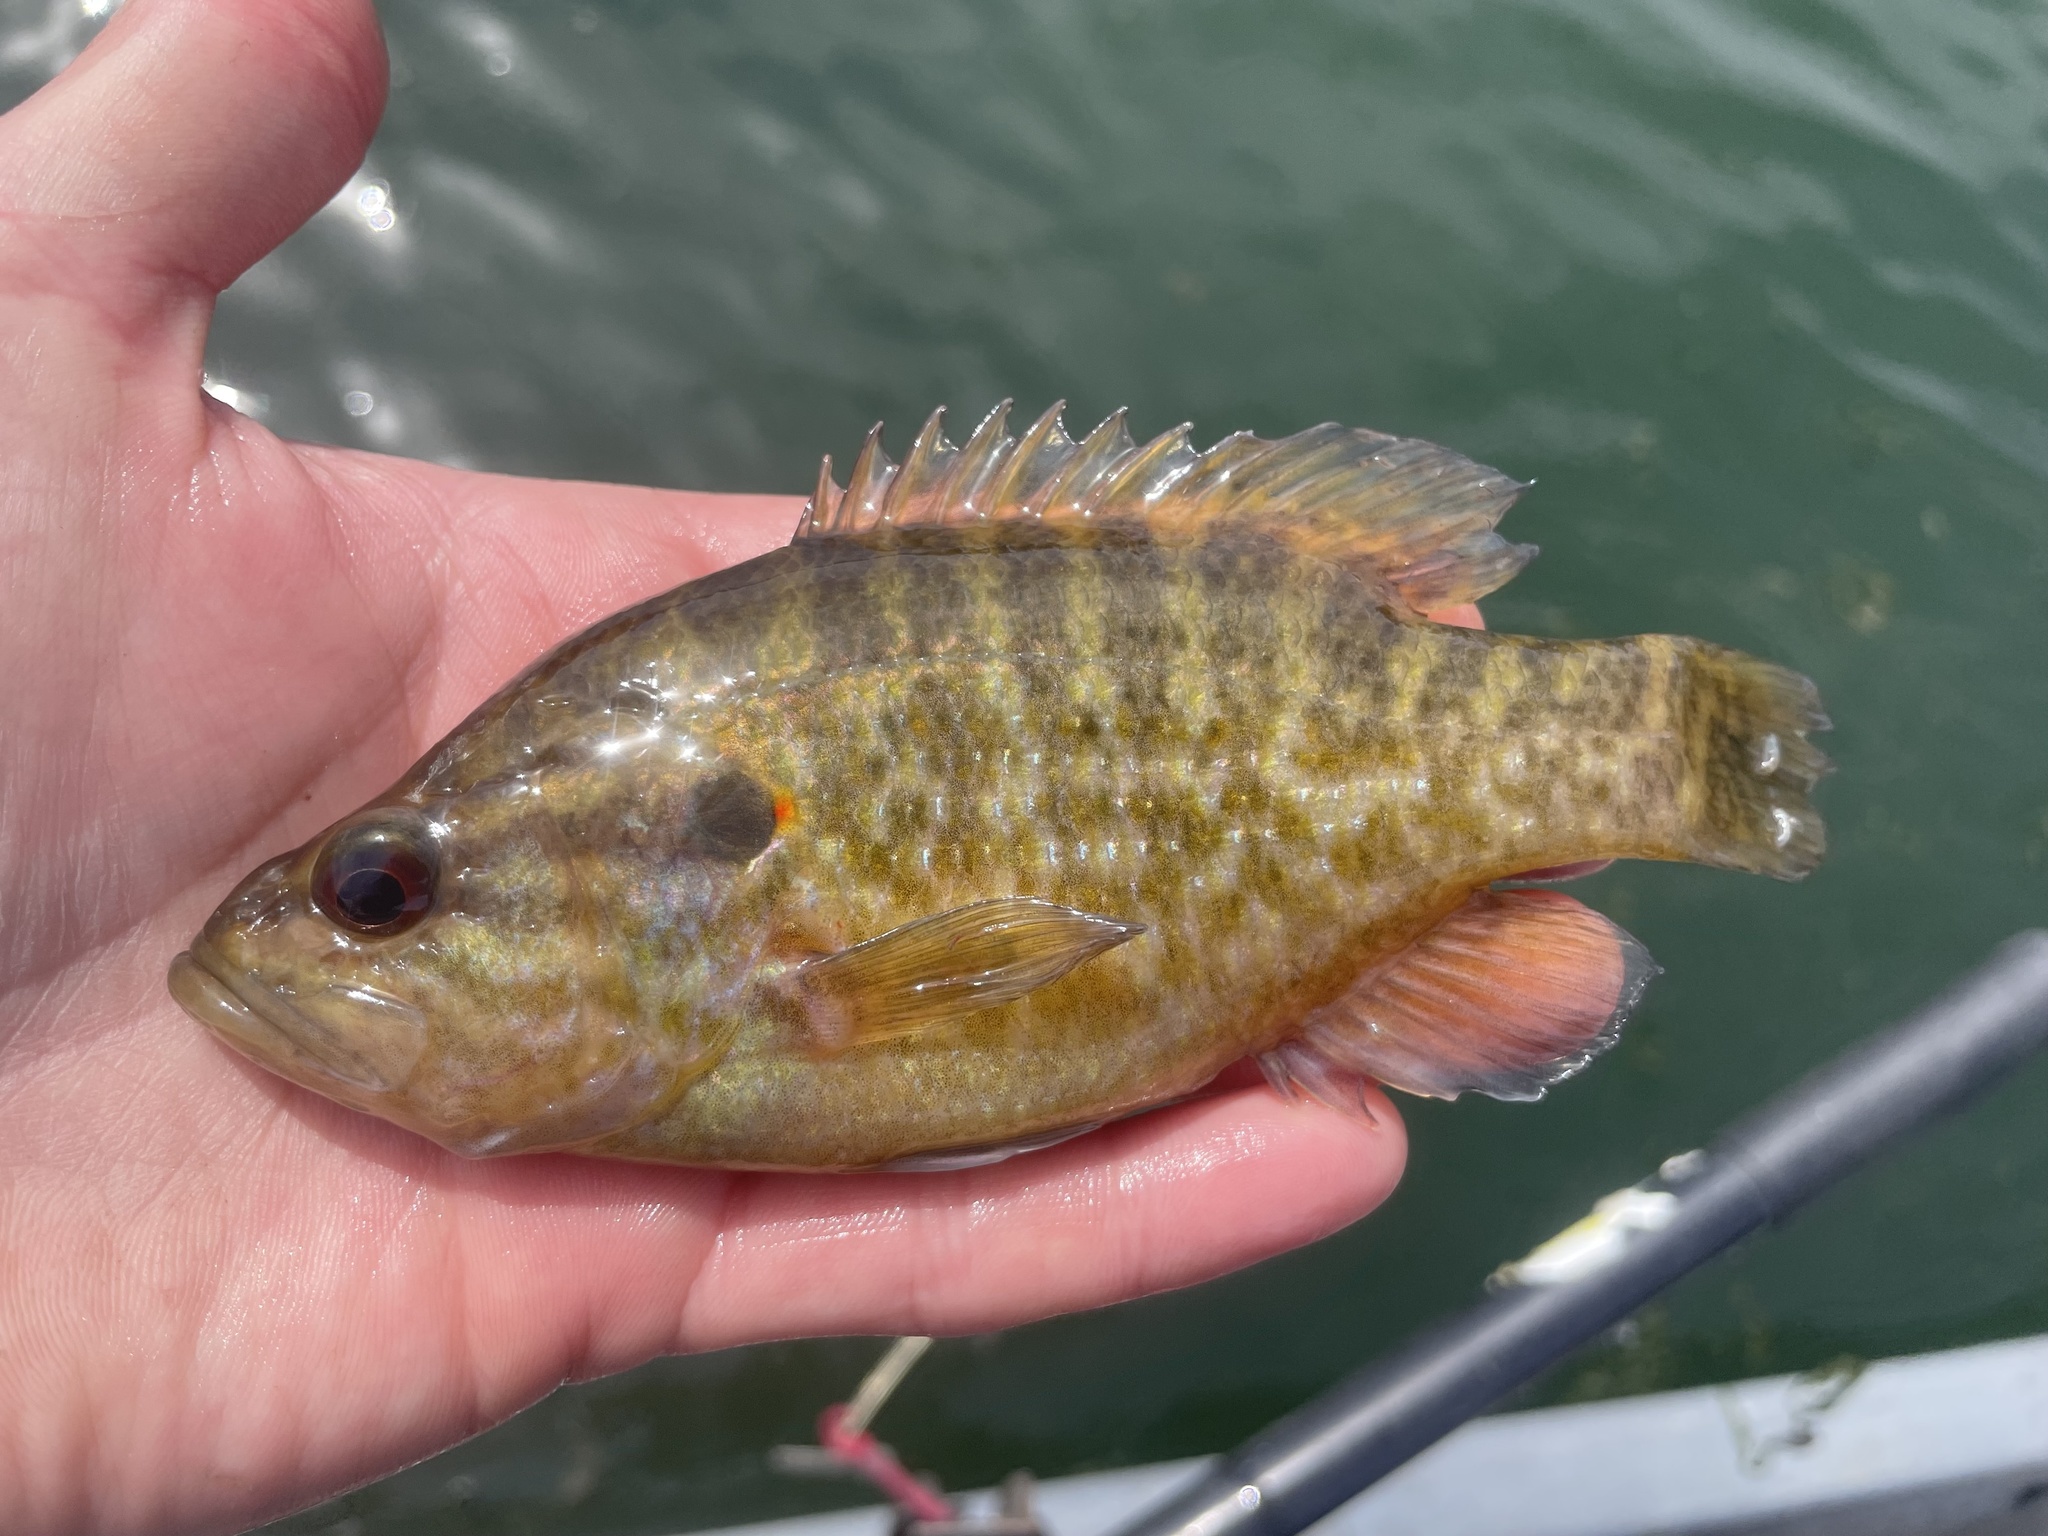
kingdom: Animalia
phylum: Chordata
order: Perciformes
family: Centrarchidae
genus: Lepomis
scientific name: Lepomis gulosus
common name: Warmouth
